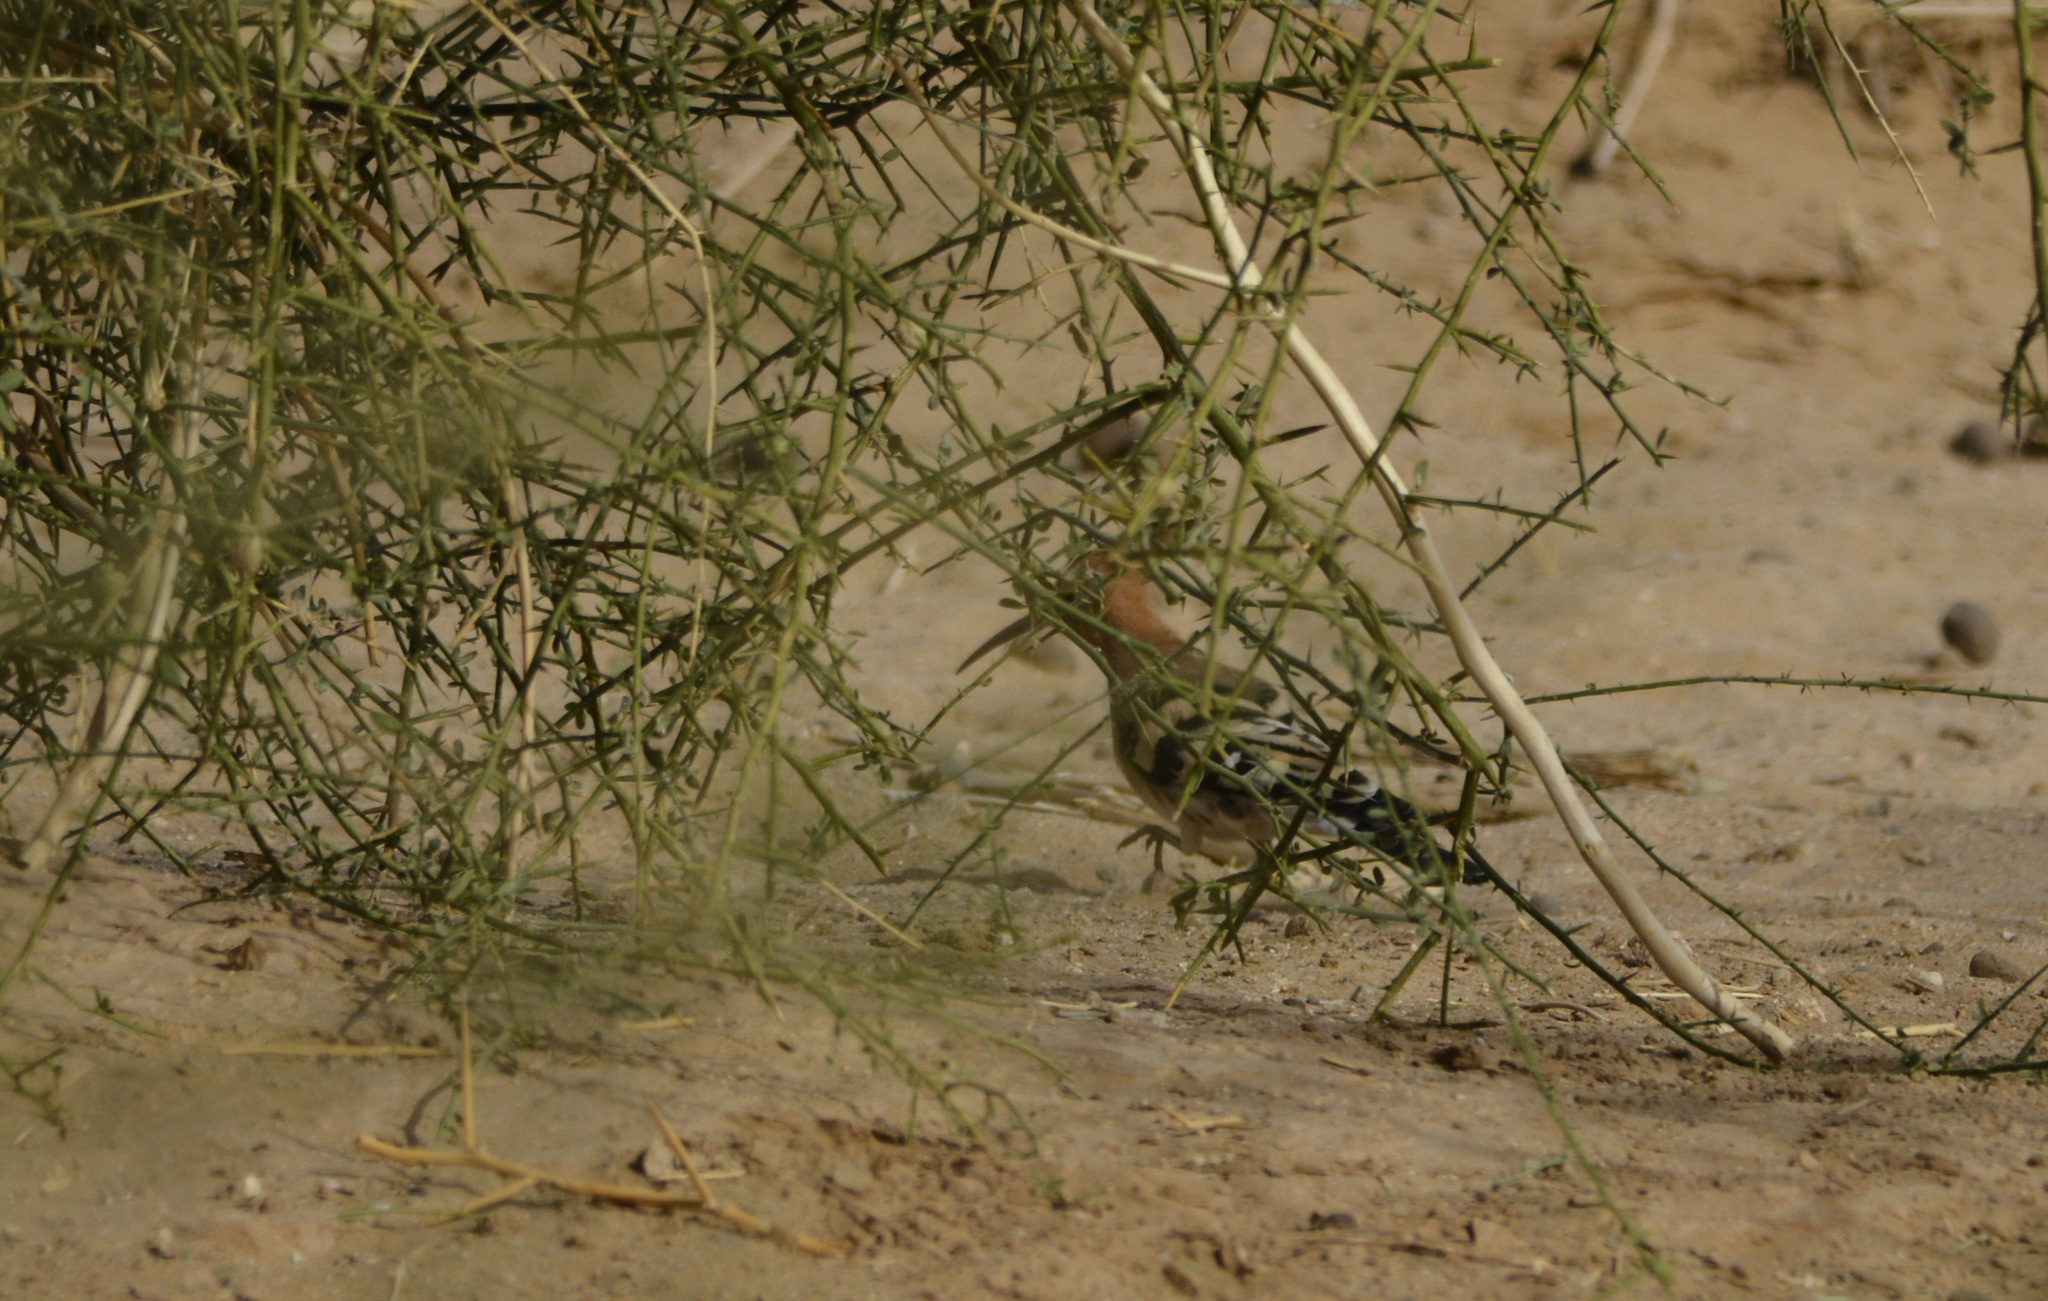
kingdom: Animalia
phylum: Chordata
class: Aves
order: Bucerotiformes
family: Upupidae
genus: Upupa
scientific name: Upupa epops
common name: Eurasian hoopoe
